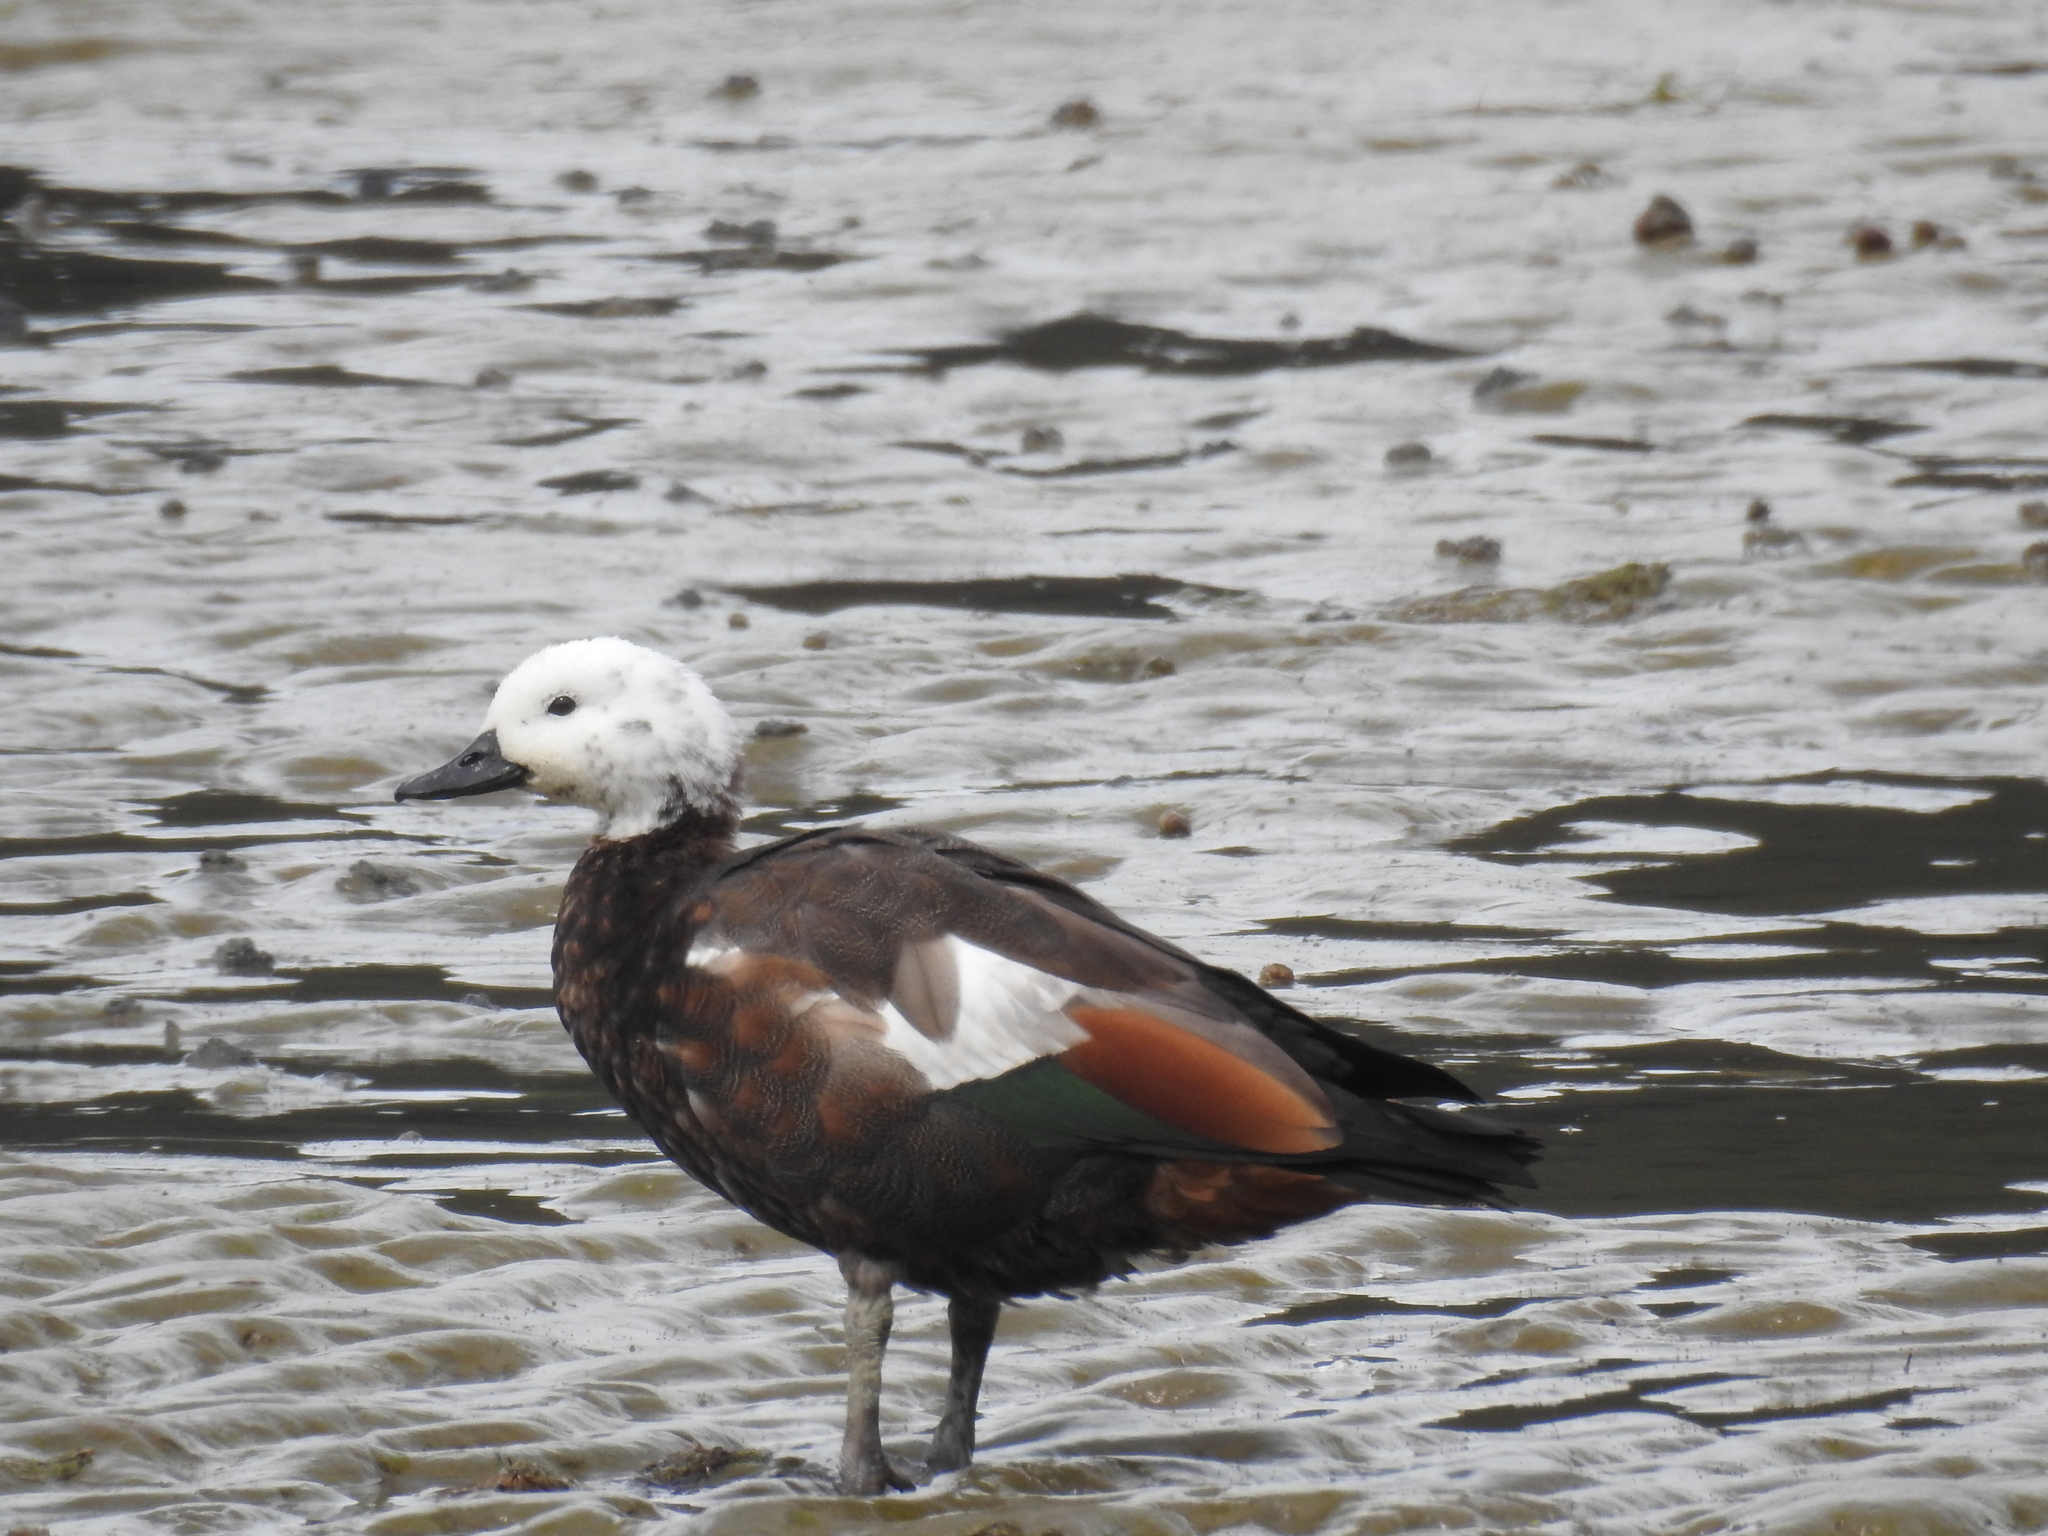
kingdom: Animalia
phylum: Chordata
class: Aves
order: Anseriformes
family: Anatidae
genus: Tadorna
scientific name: Tadorna variegata
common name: Paradise shelduck
